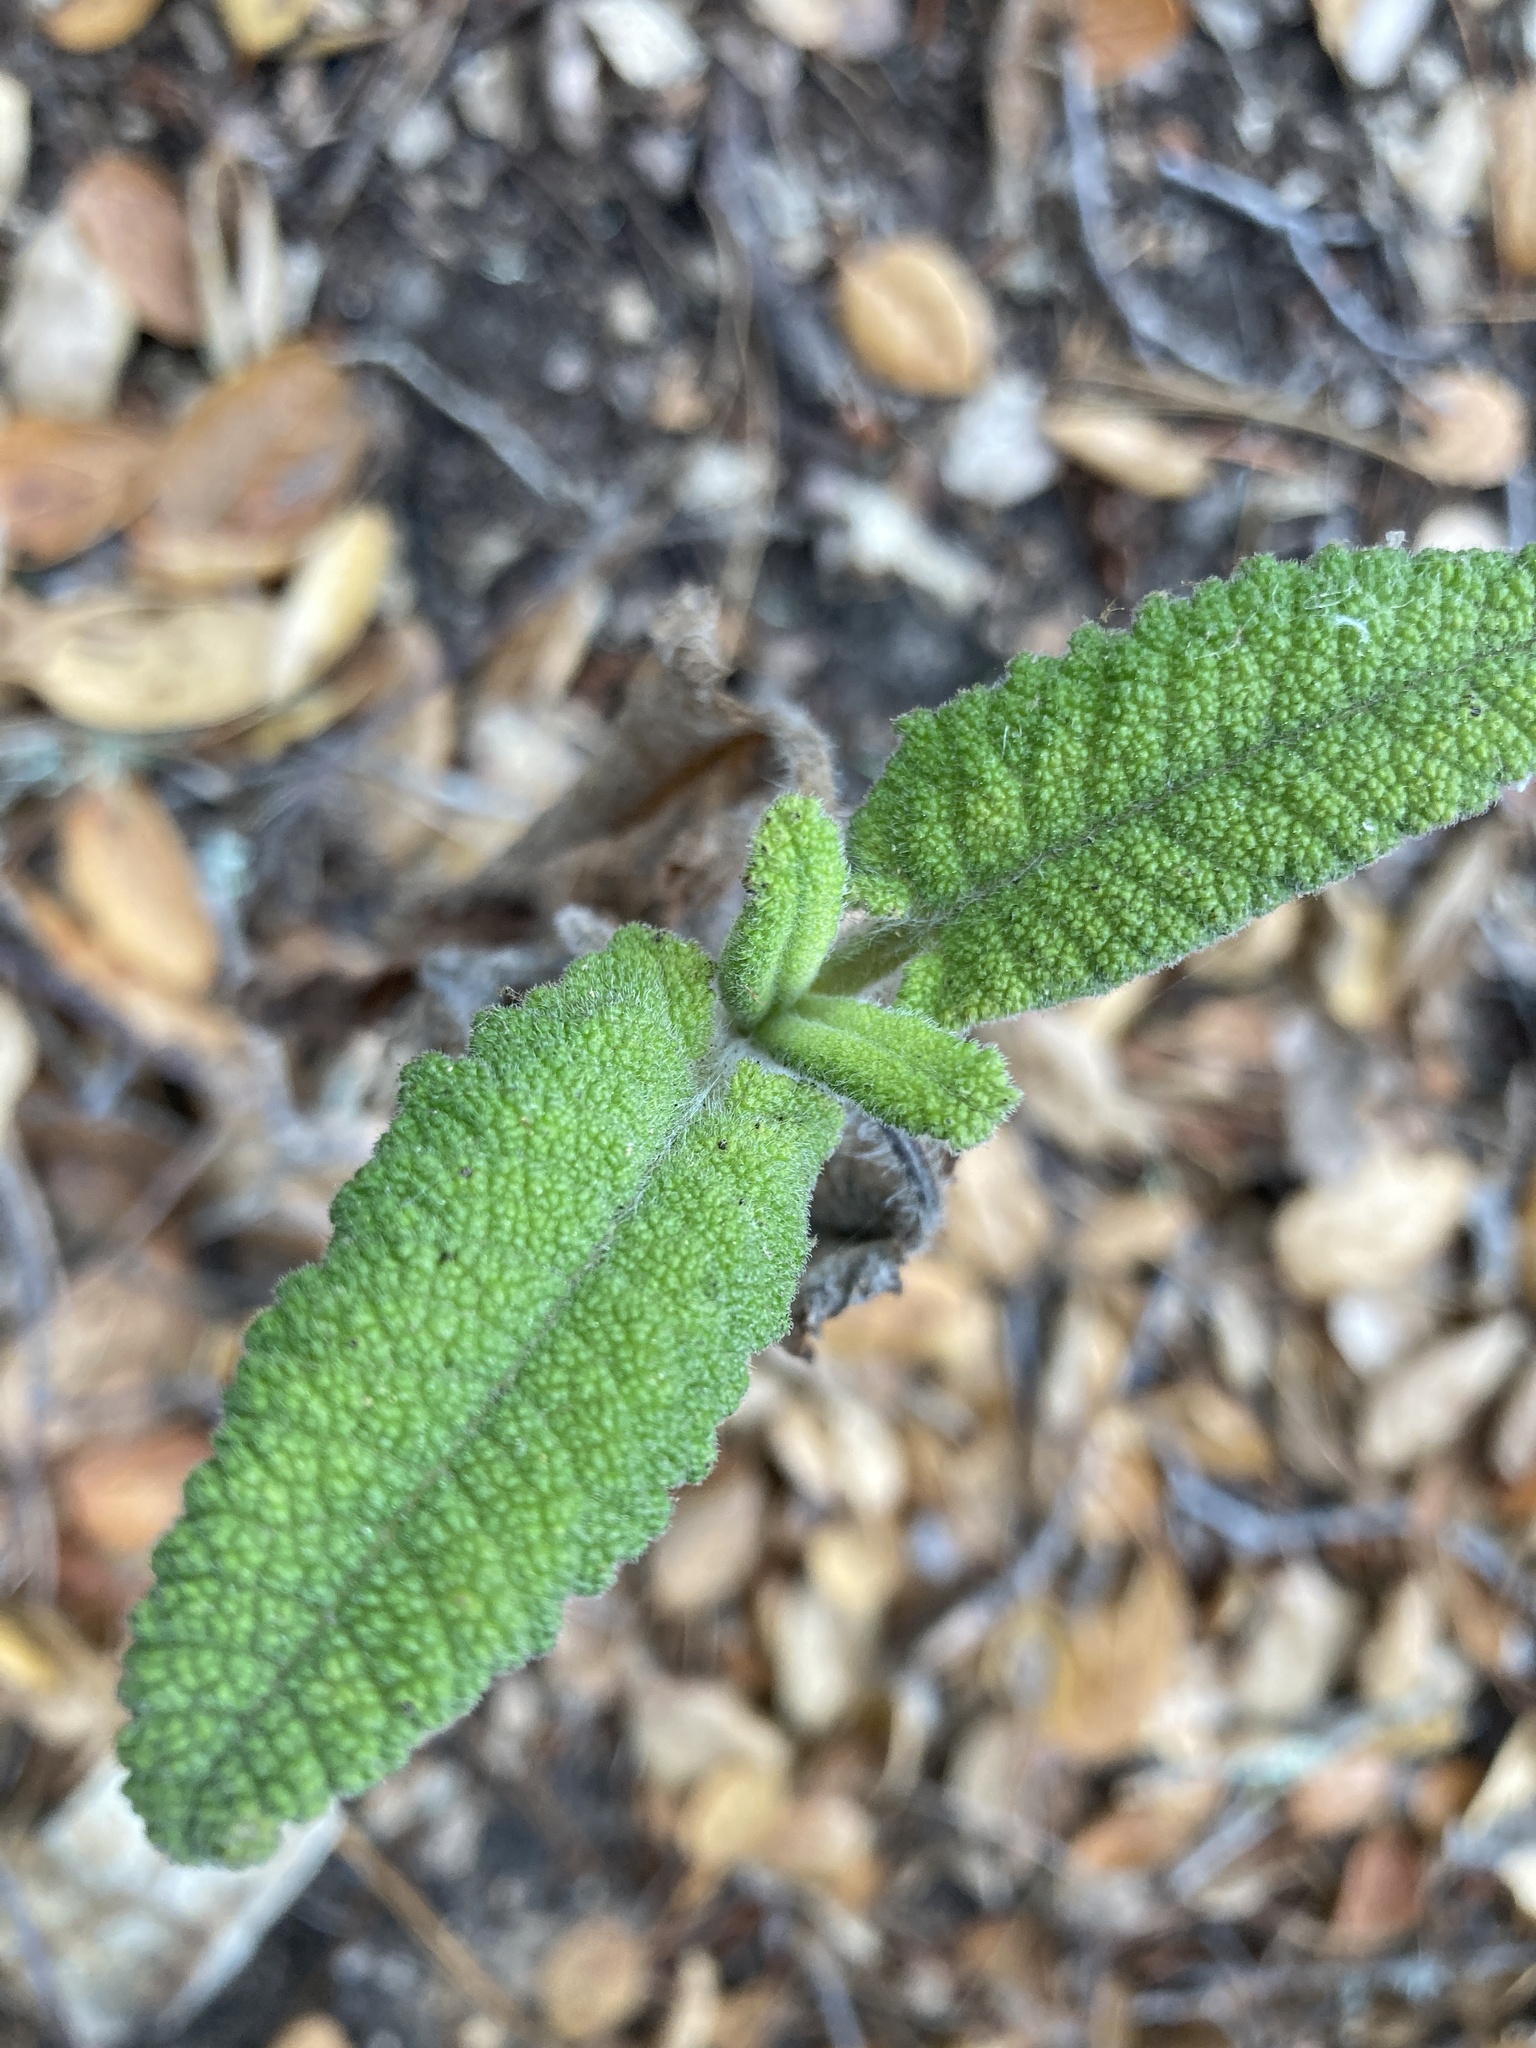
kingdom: Plantae
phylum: Tracheophyta
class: Magnoliopsida
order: Lamiales
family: Lamiaceae
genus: Salvia
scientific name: Salvia spathacea
